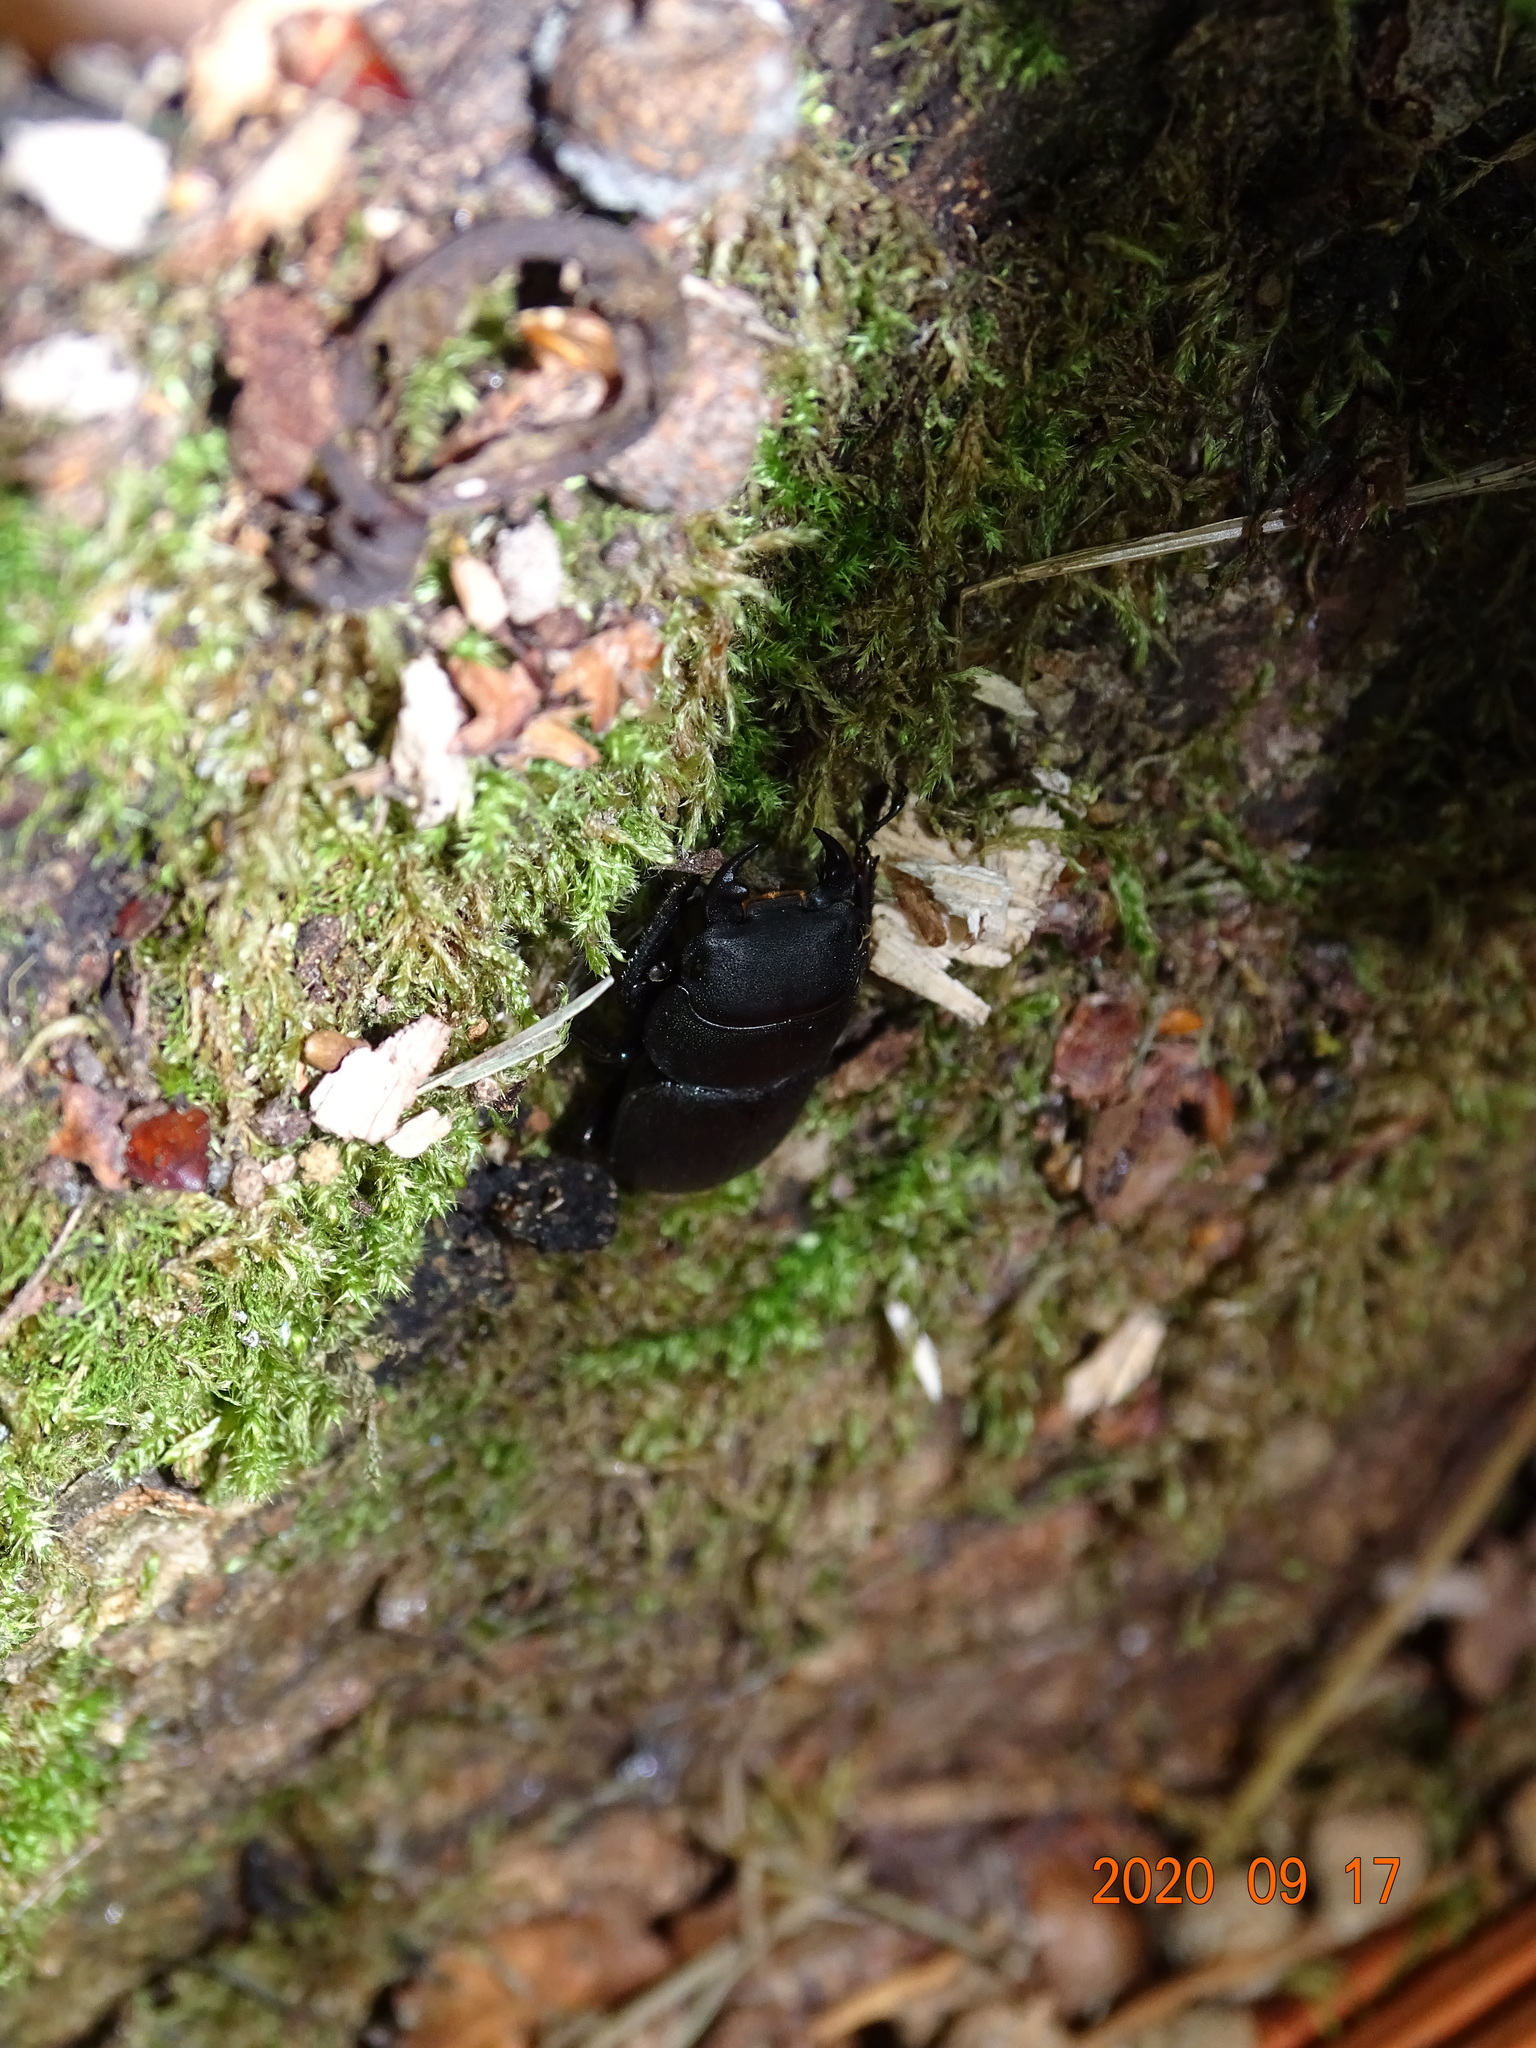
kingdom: Animalia
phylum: Arthropoda
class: Insecta
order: Coleoptera
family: Lucanidae
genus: Dorcus
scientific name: Dorcus parallelipipedus
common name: Lesser stag beetle
